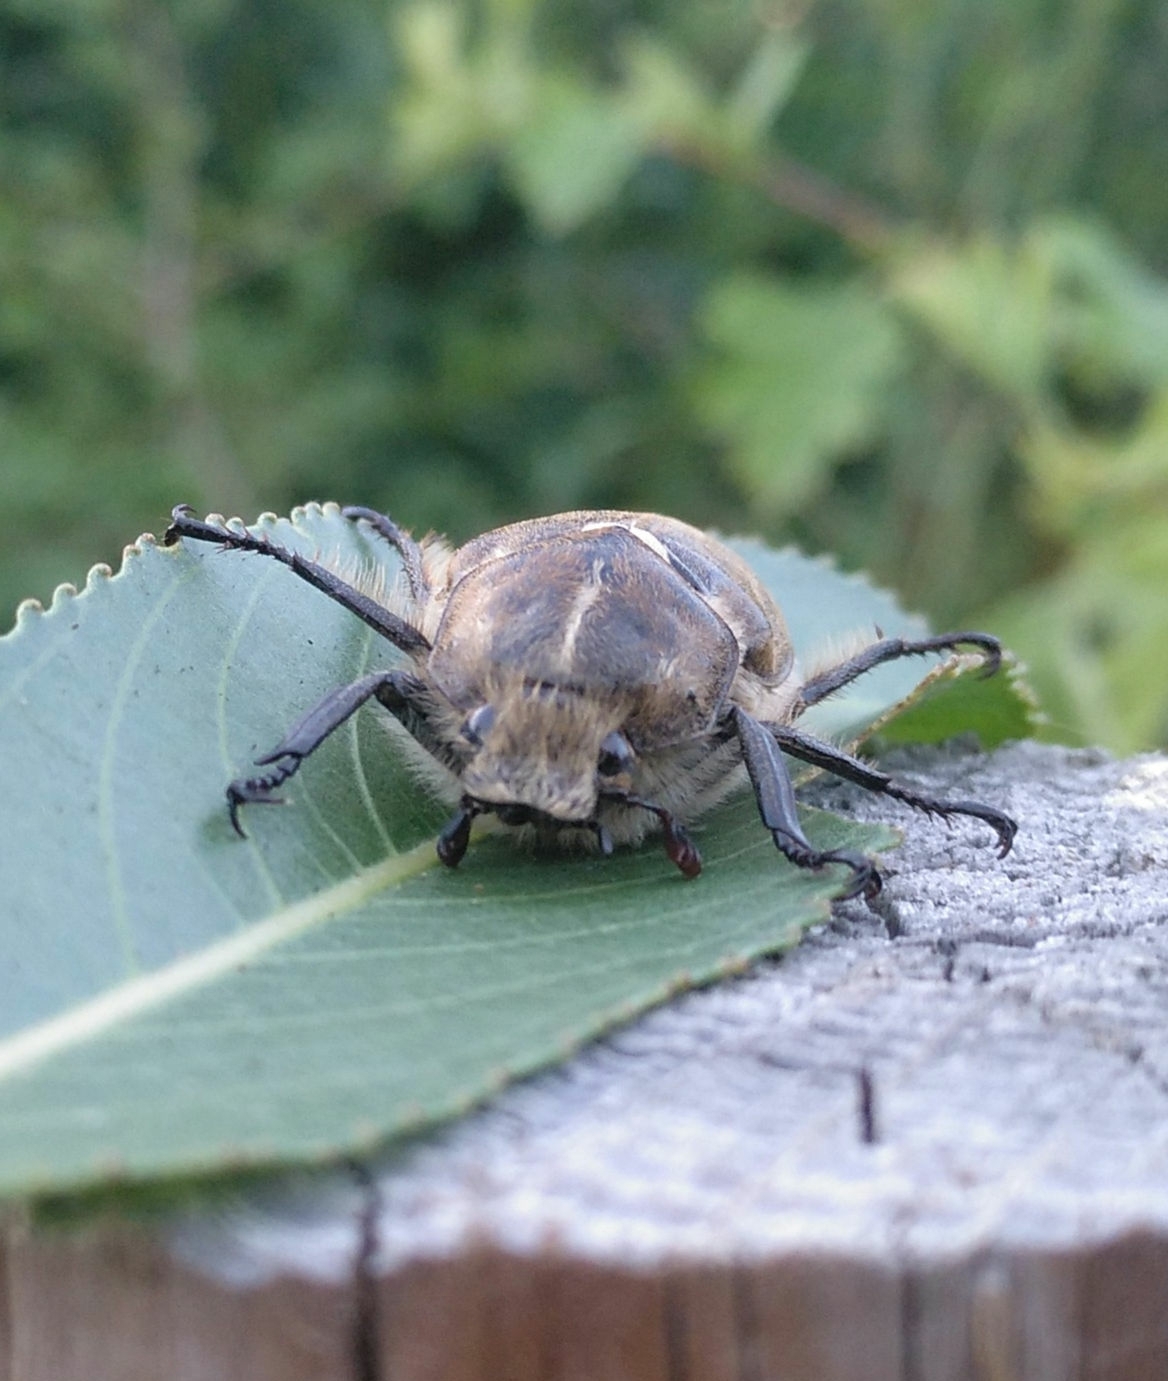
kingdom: Animalia
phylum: Arthropoda
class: Insecta
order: Coleoptera
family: Scarabaeidae
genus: Anoxia
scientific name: Anoxia villosa
